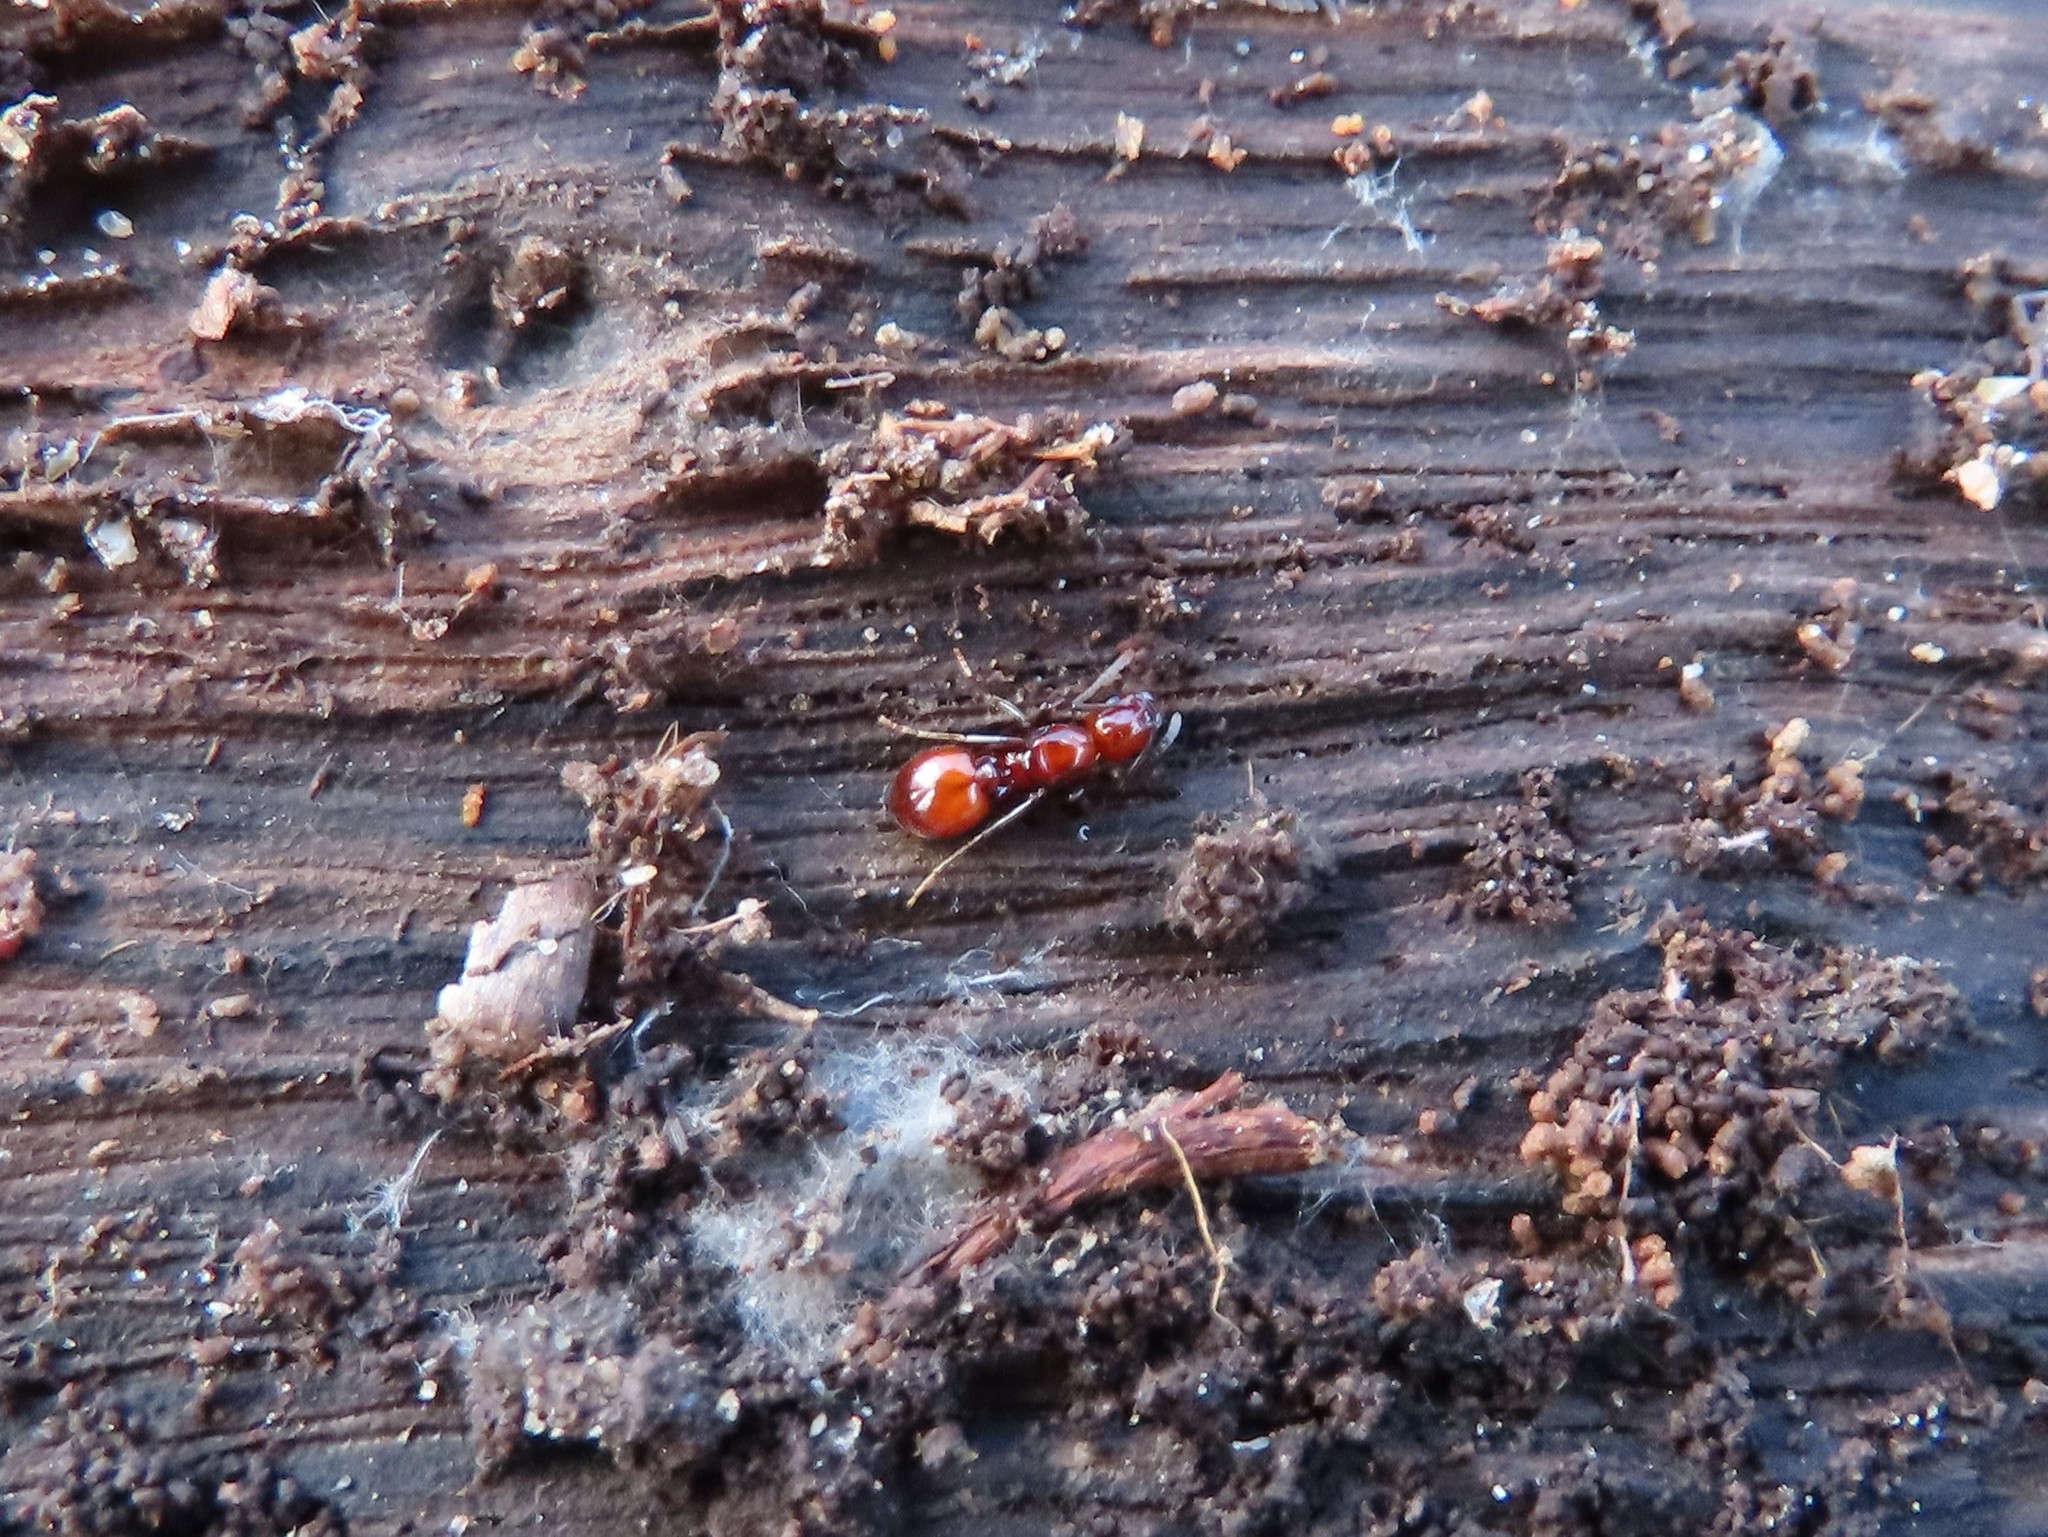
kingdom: Animalia
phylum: Arthropoda
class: Insecta
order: Hymenoptera
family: Formicidae
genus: Aphaenogaster
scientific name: Aphaenogaster tennesseensis
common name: Tennessee thread-waisted ant
